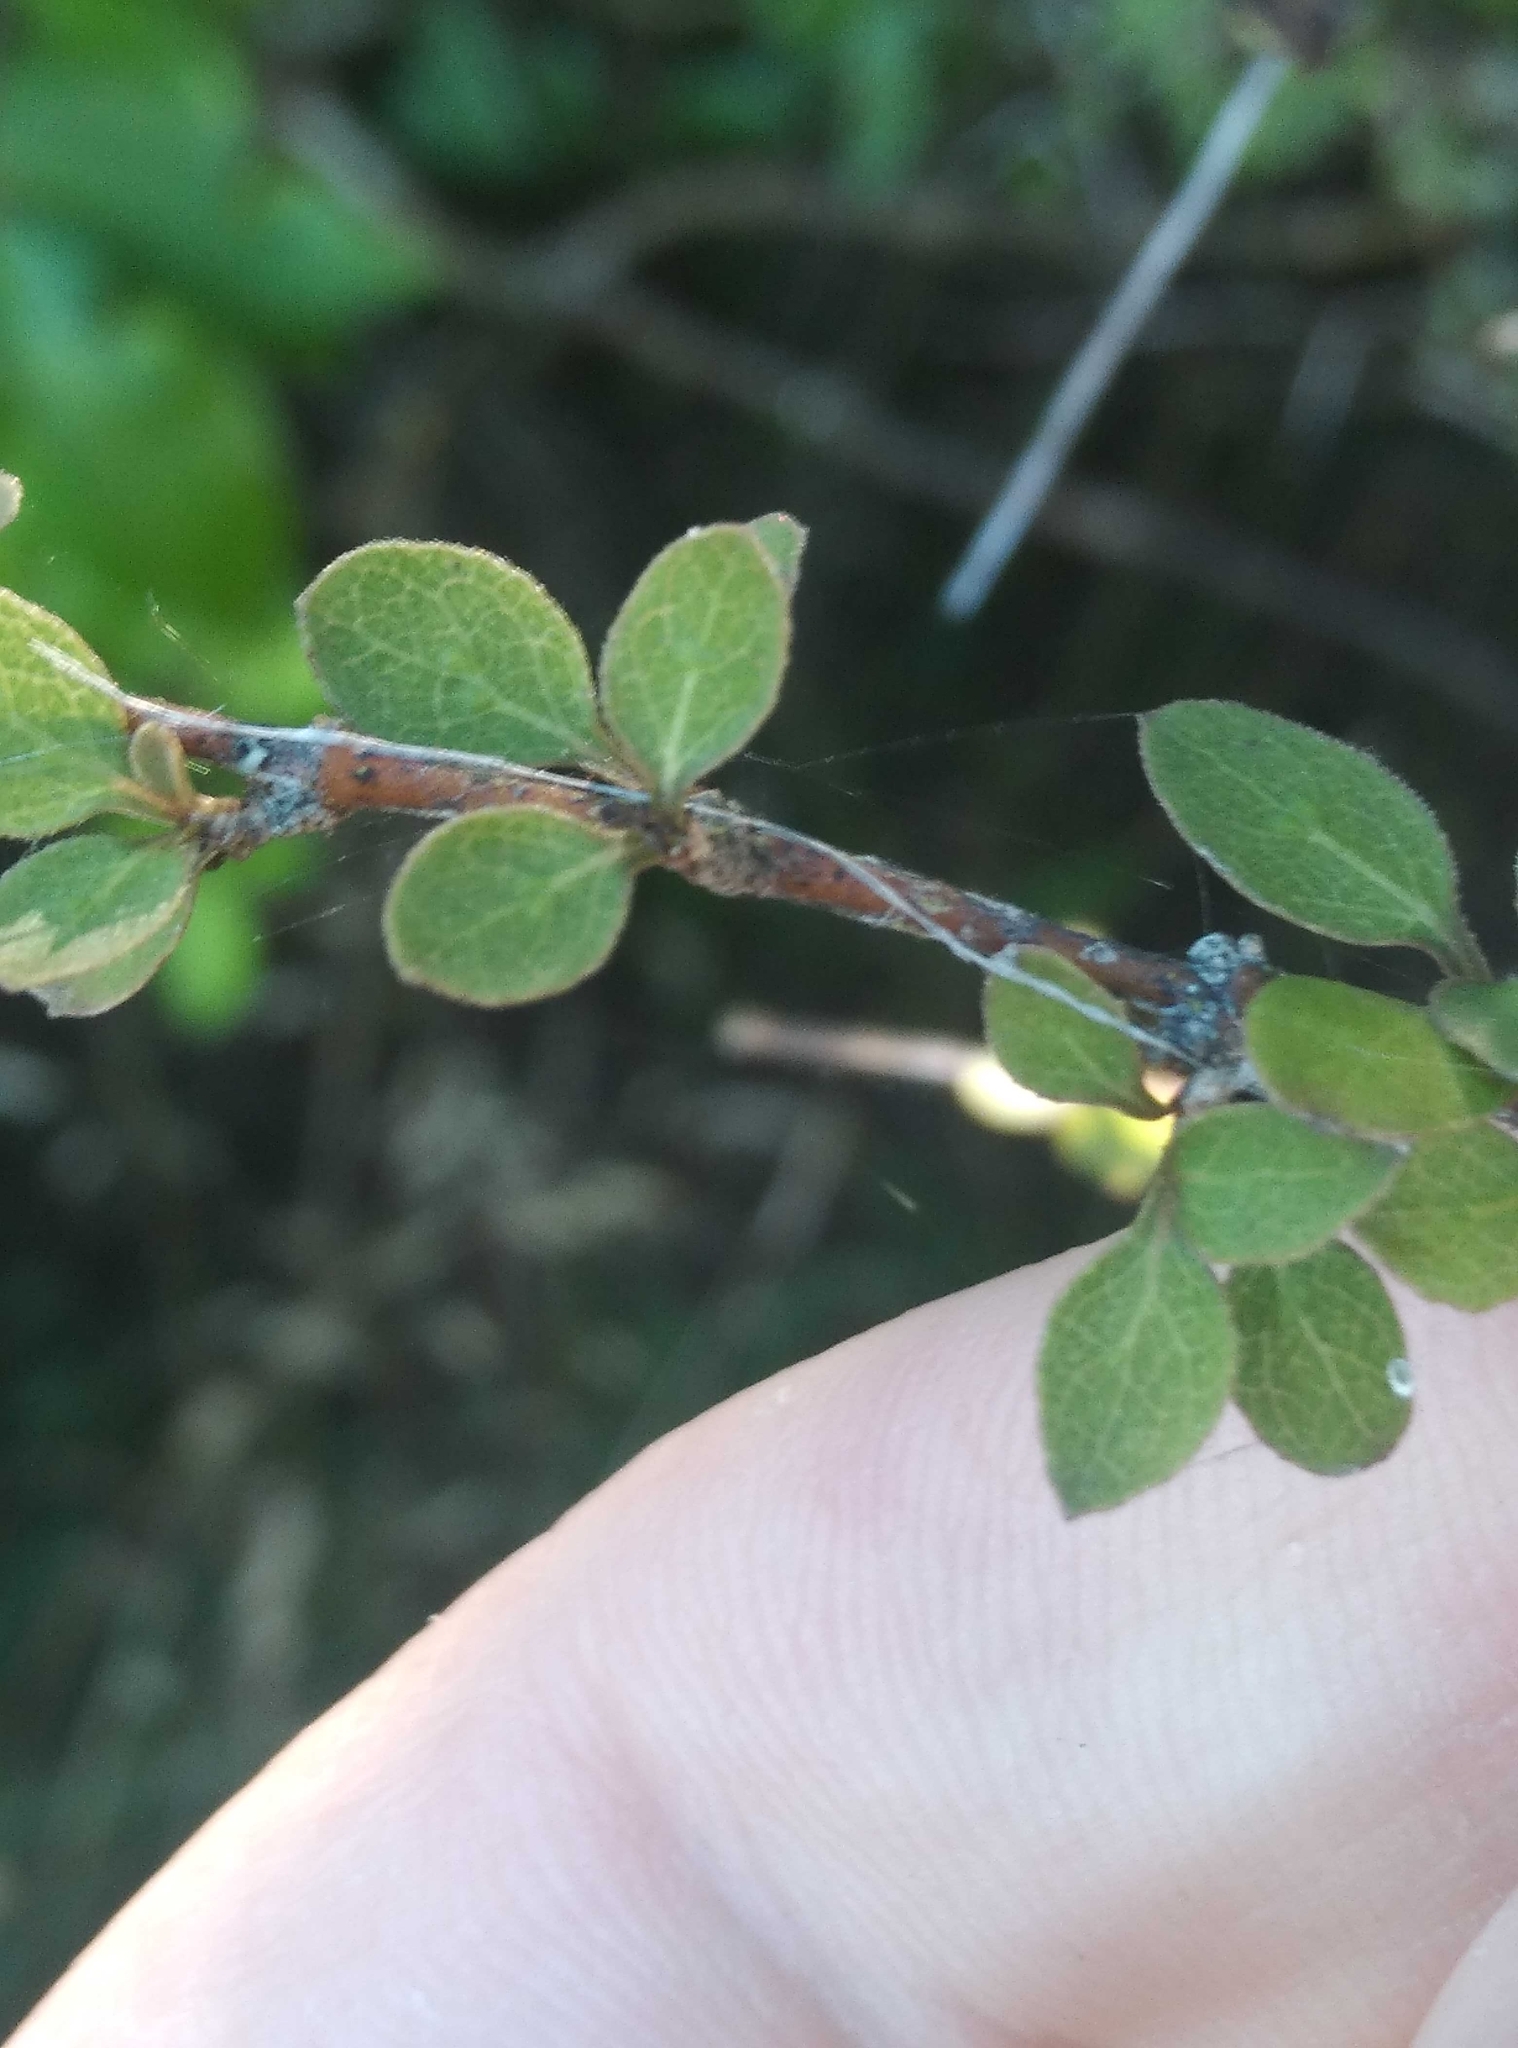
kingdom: Plantae
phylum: Tracheophyta
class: Magnoliopsida
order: Gentianales
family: Rubiaceae
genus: Coprosma
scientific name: Coprosma rubra
